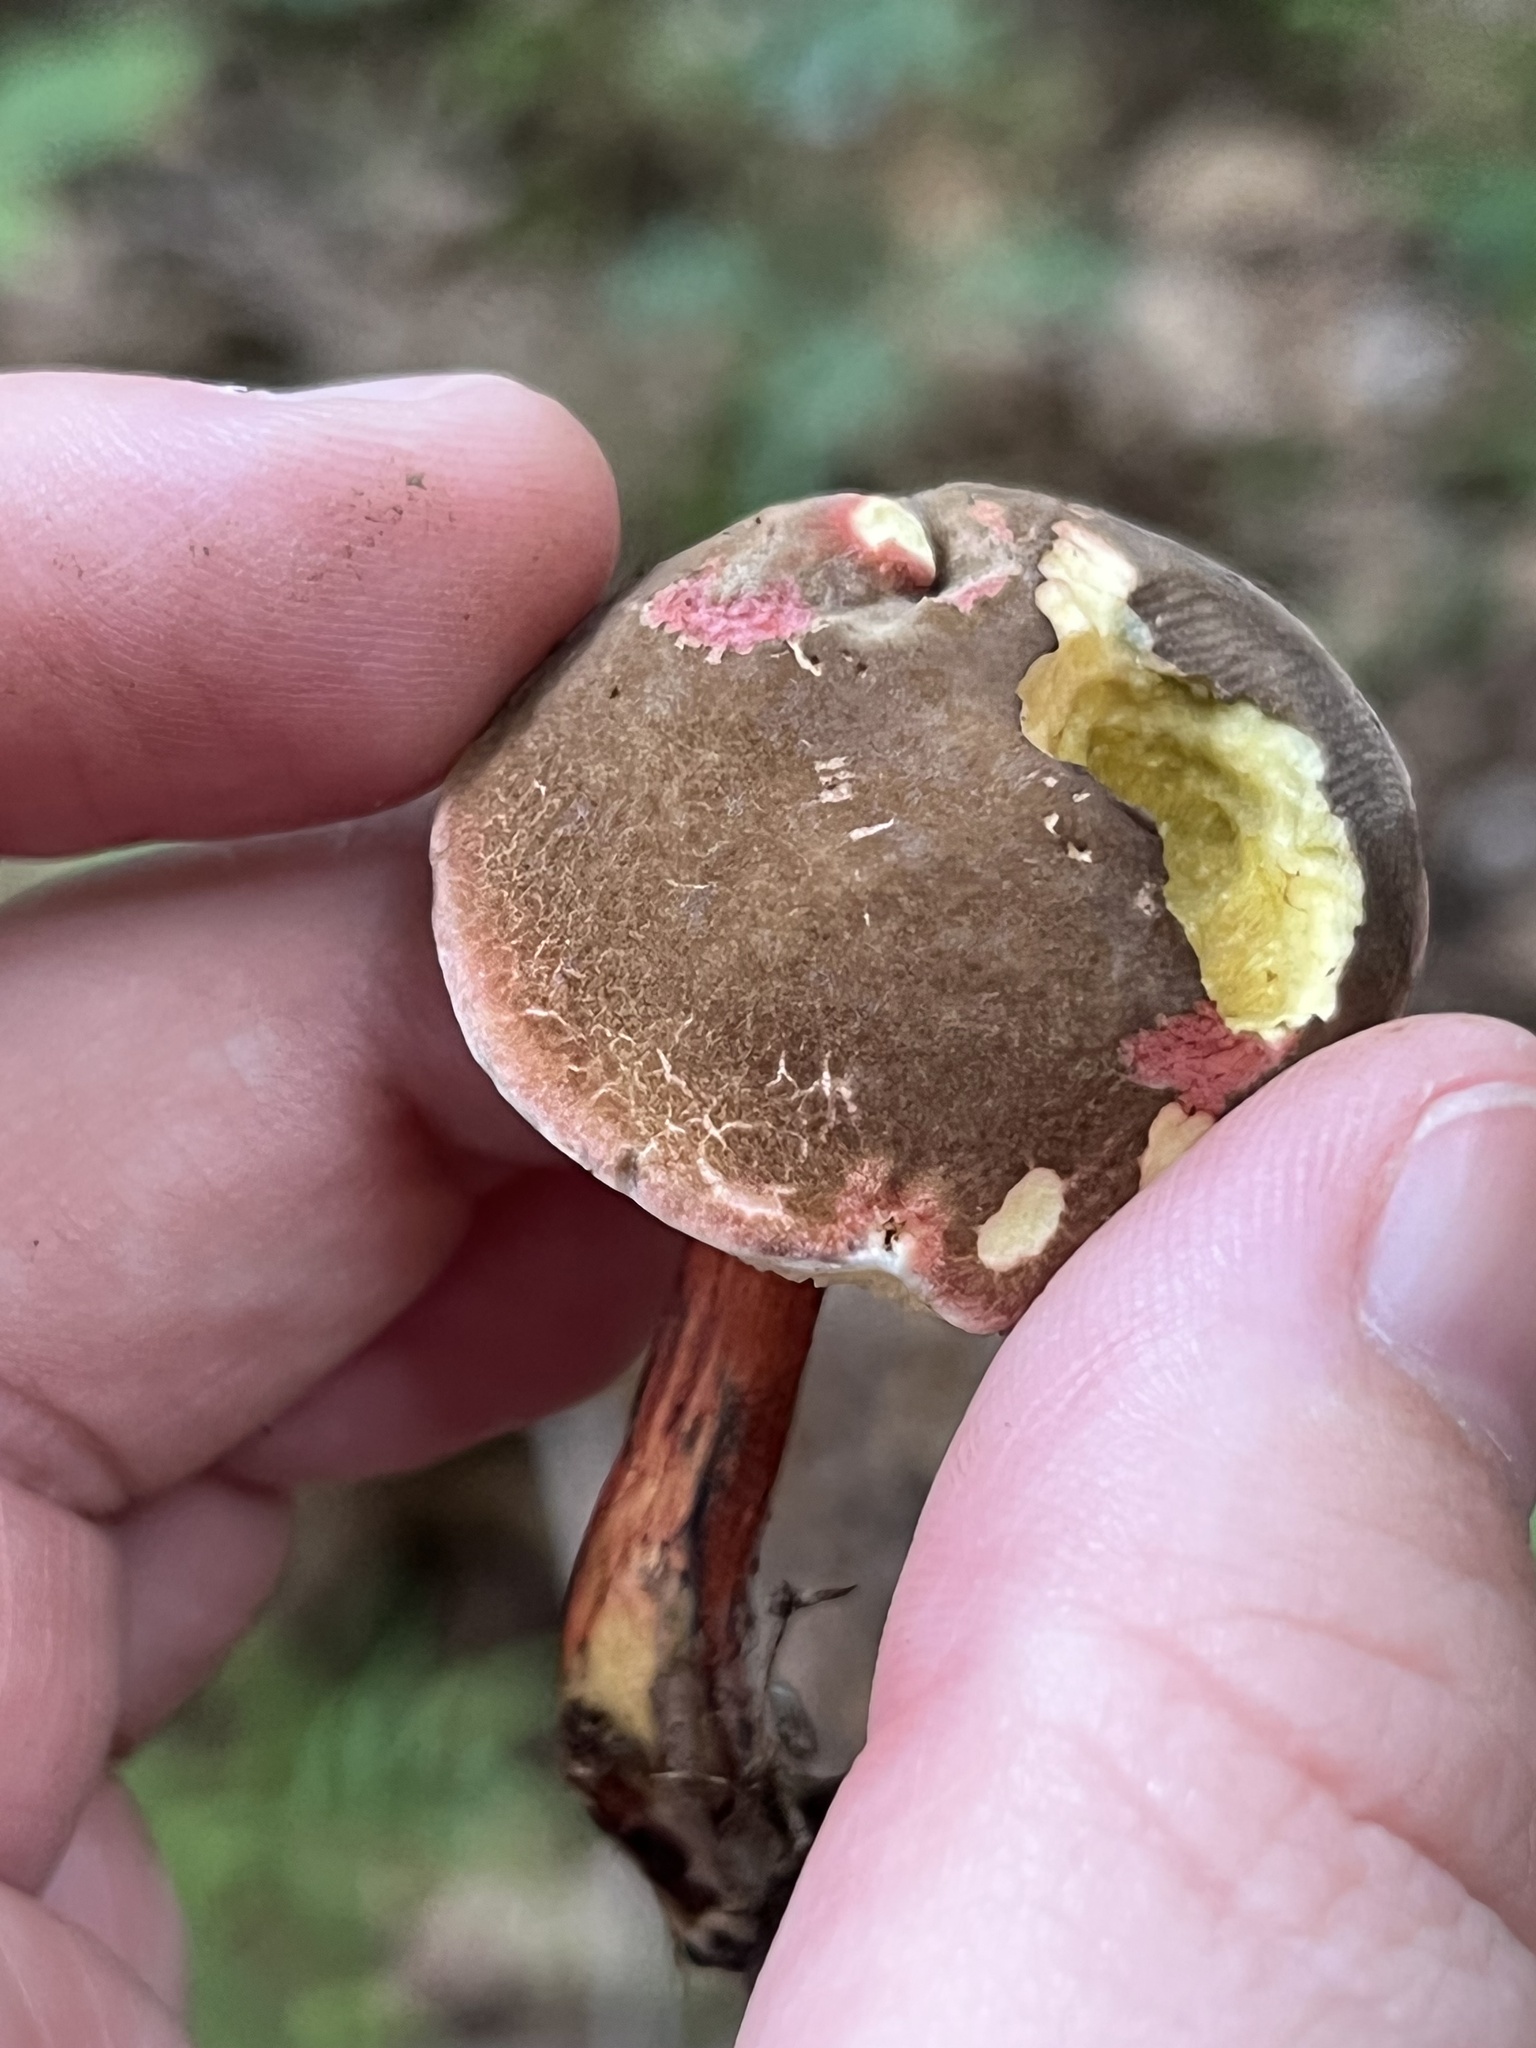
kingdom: Fungi
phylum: Basidiomycota
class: Agaricomycetes
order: Boletales
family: Boletaceae
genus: Xerocomellus
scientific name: Xerocomellus chrysenteron
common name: Red-cracking bolete
